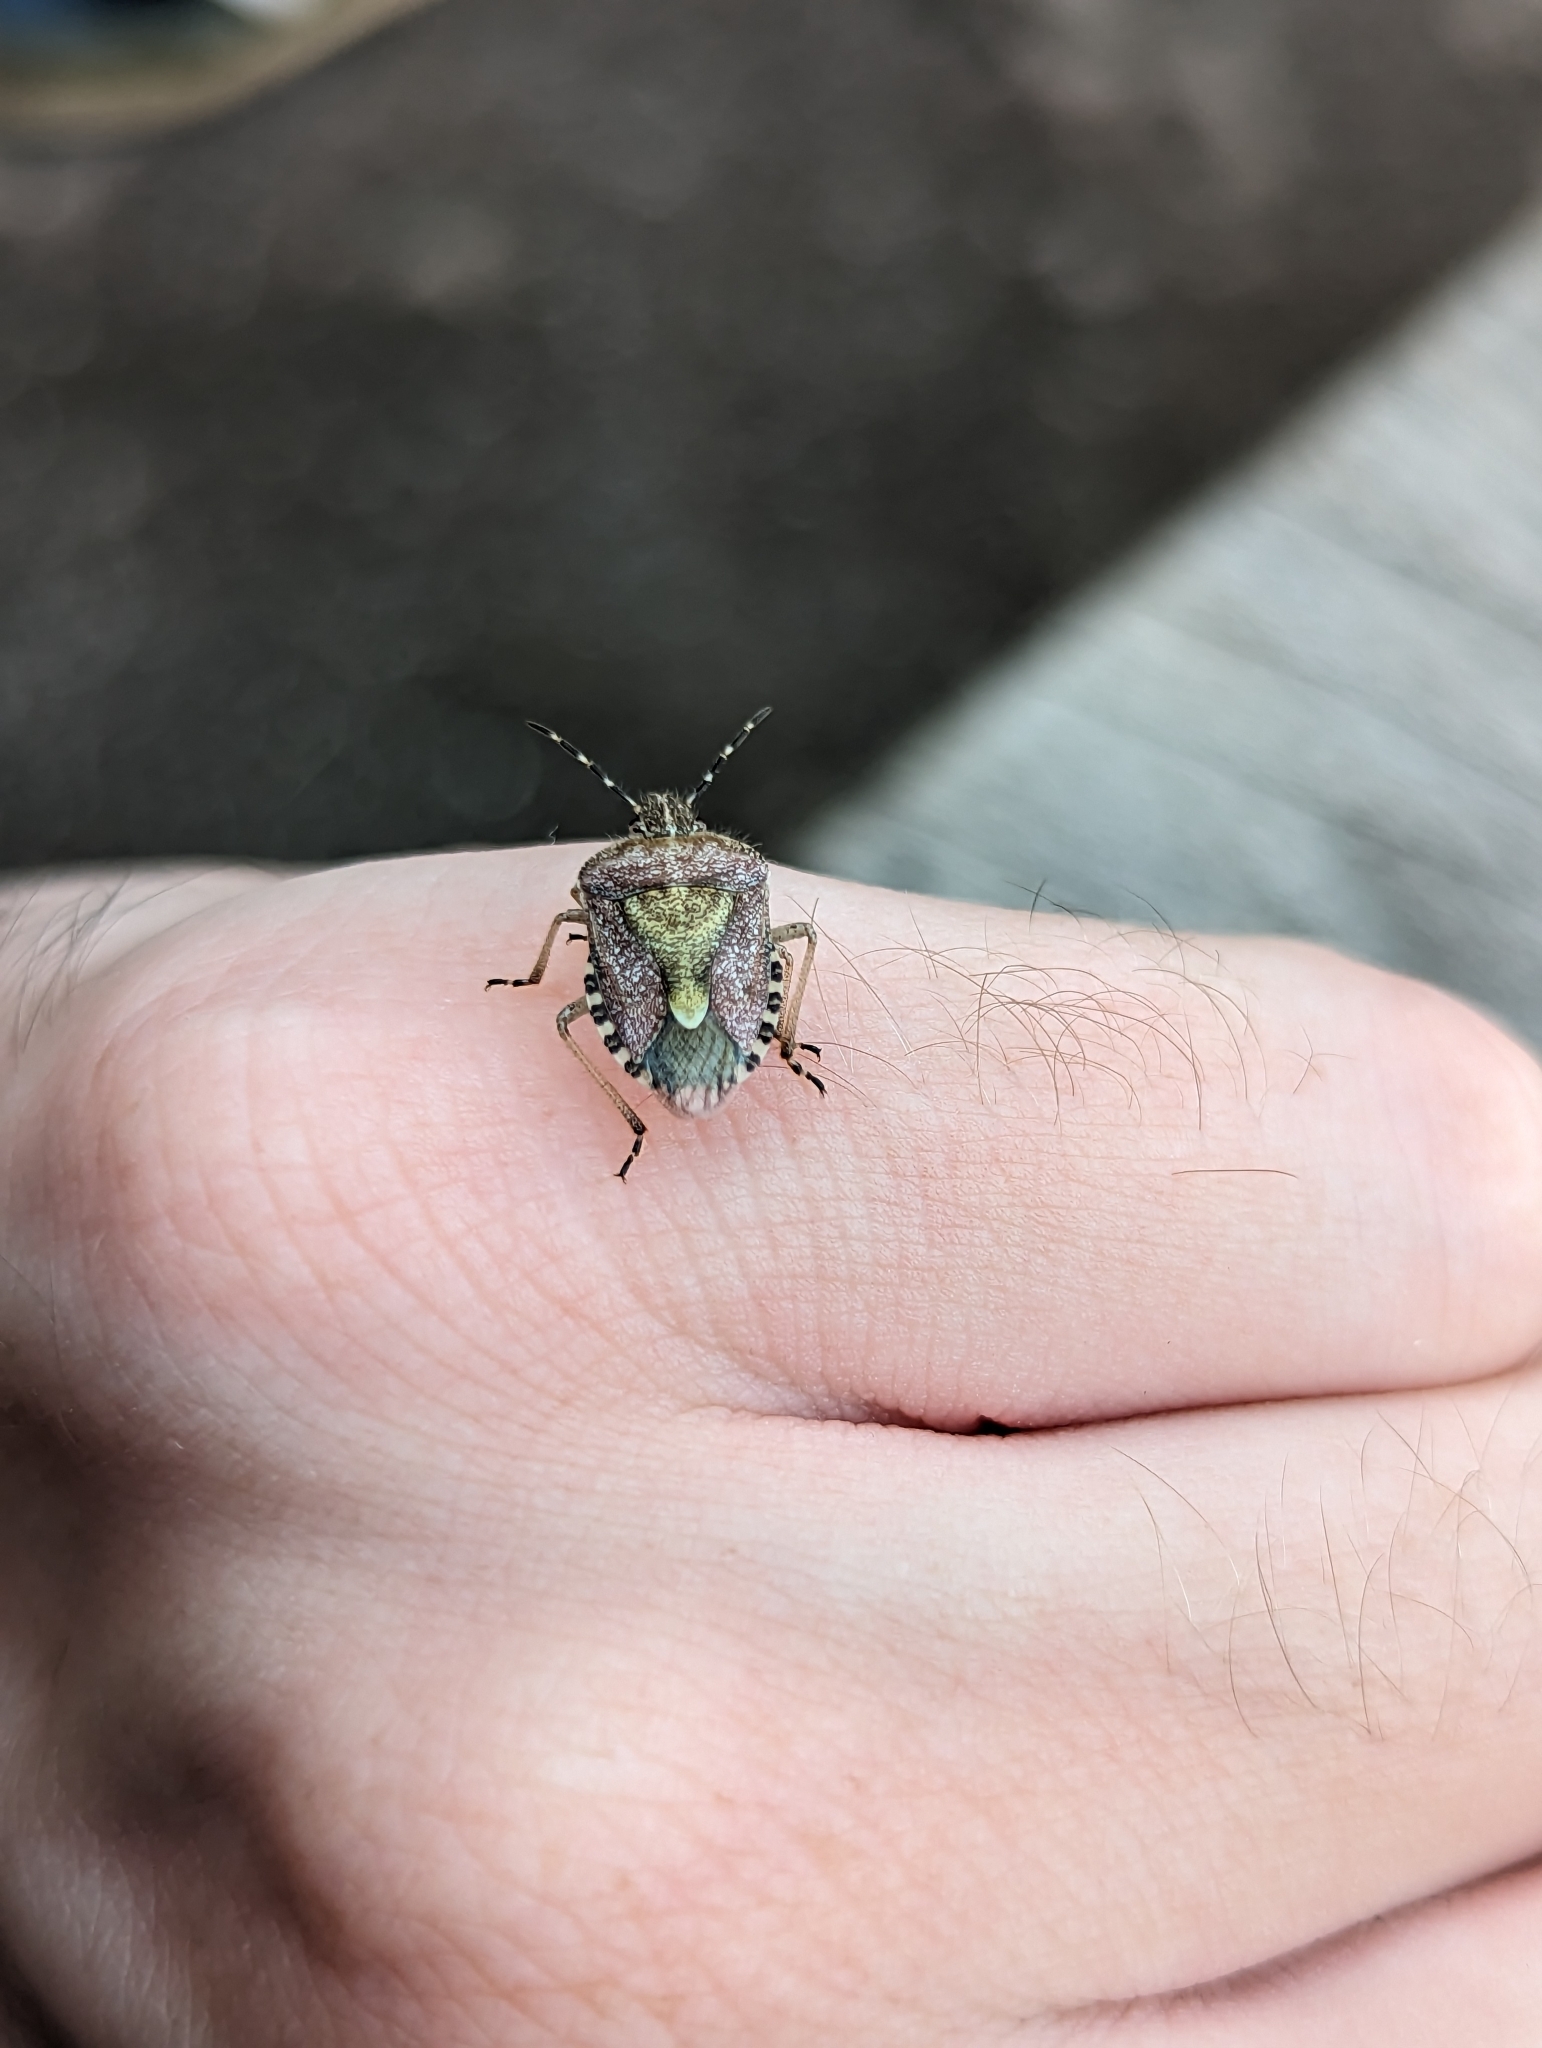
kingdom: Animalia
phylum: Arthropoda
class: Insecta
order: Hemiptera
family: Pentatomidae
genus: Dolycoris
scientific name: Dolycoris baccarum
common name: Sloe bug
